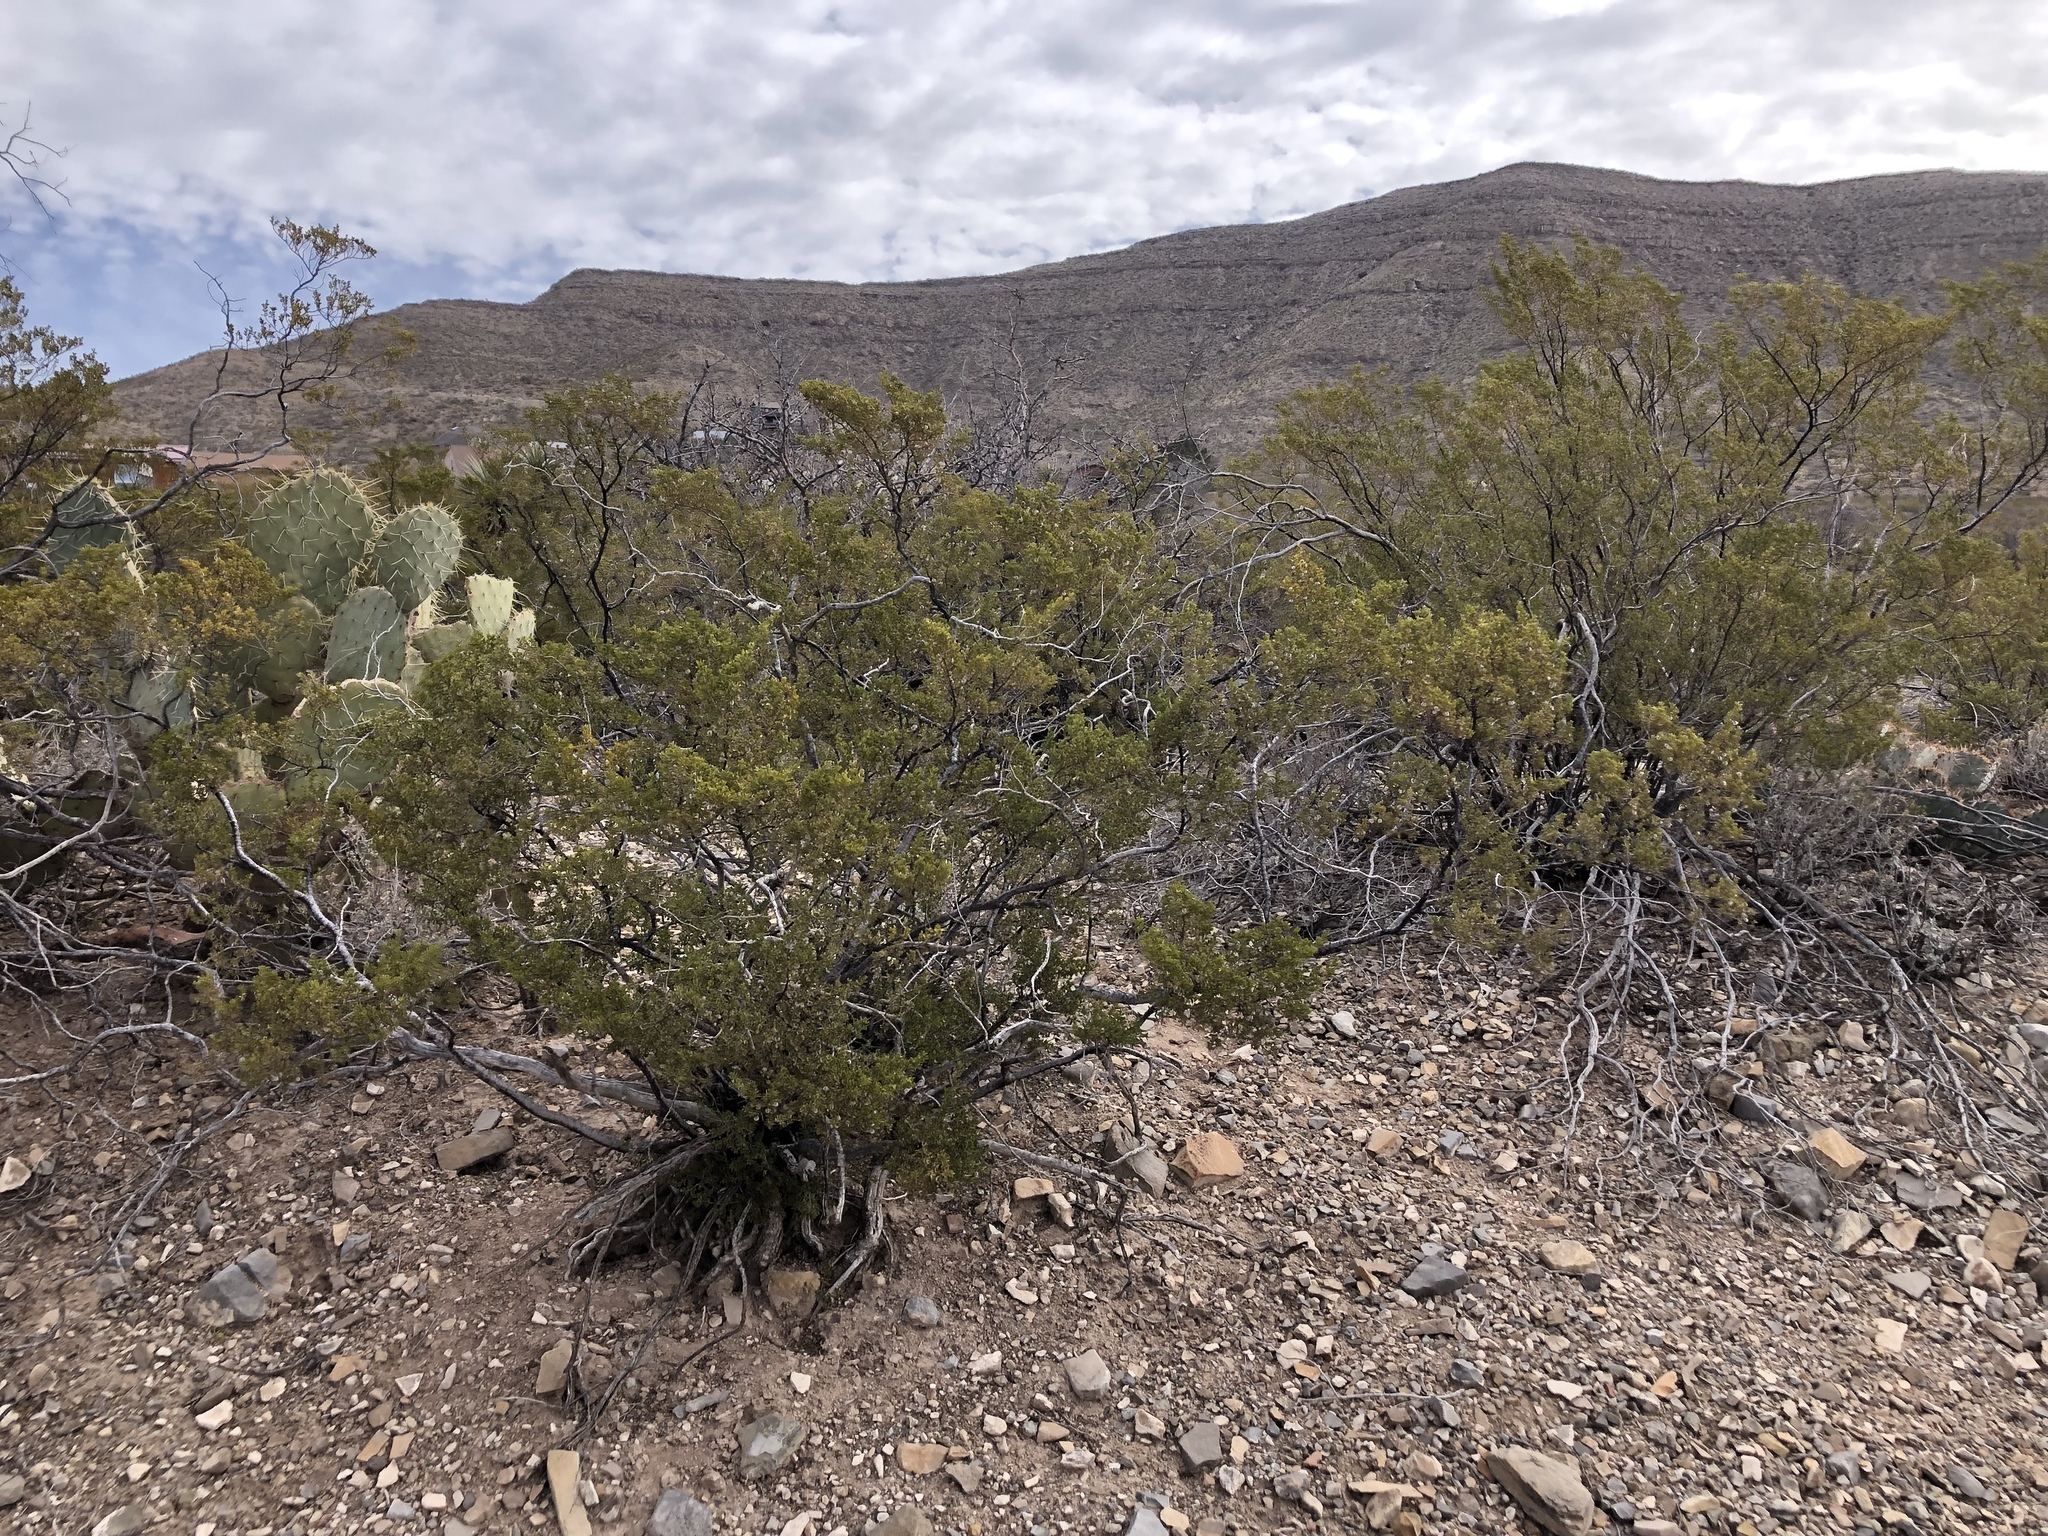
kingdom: Plantae
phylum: Tracheophyta
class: Magnoliopsida
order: Zygophyllales
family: Zygophyllaceae
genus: Larrea
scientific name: Larrea tridentata
